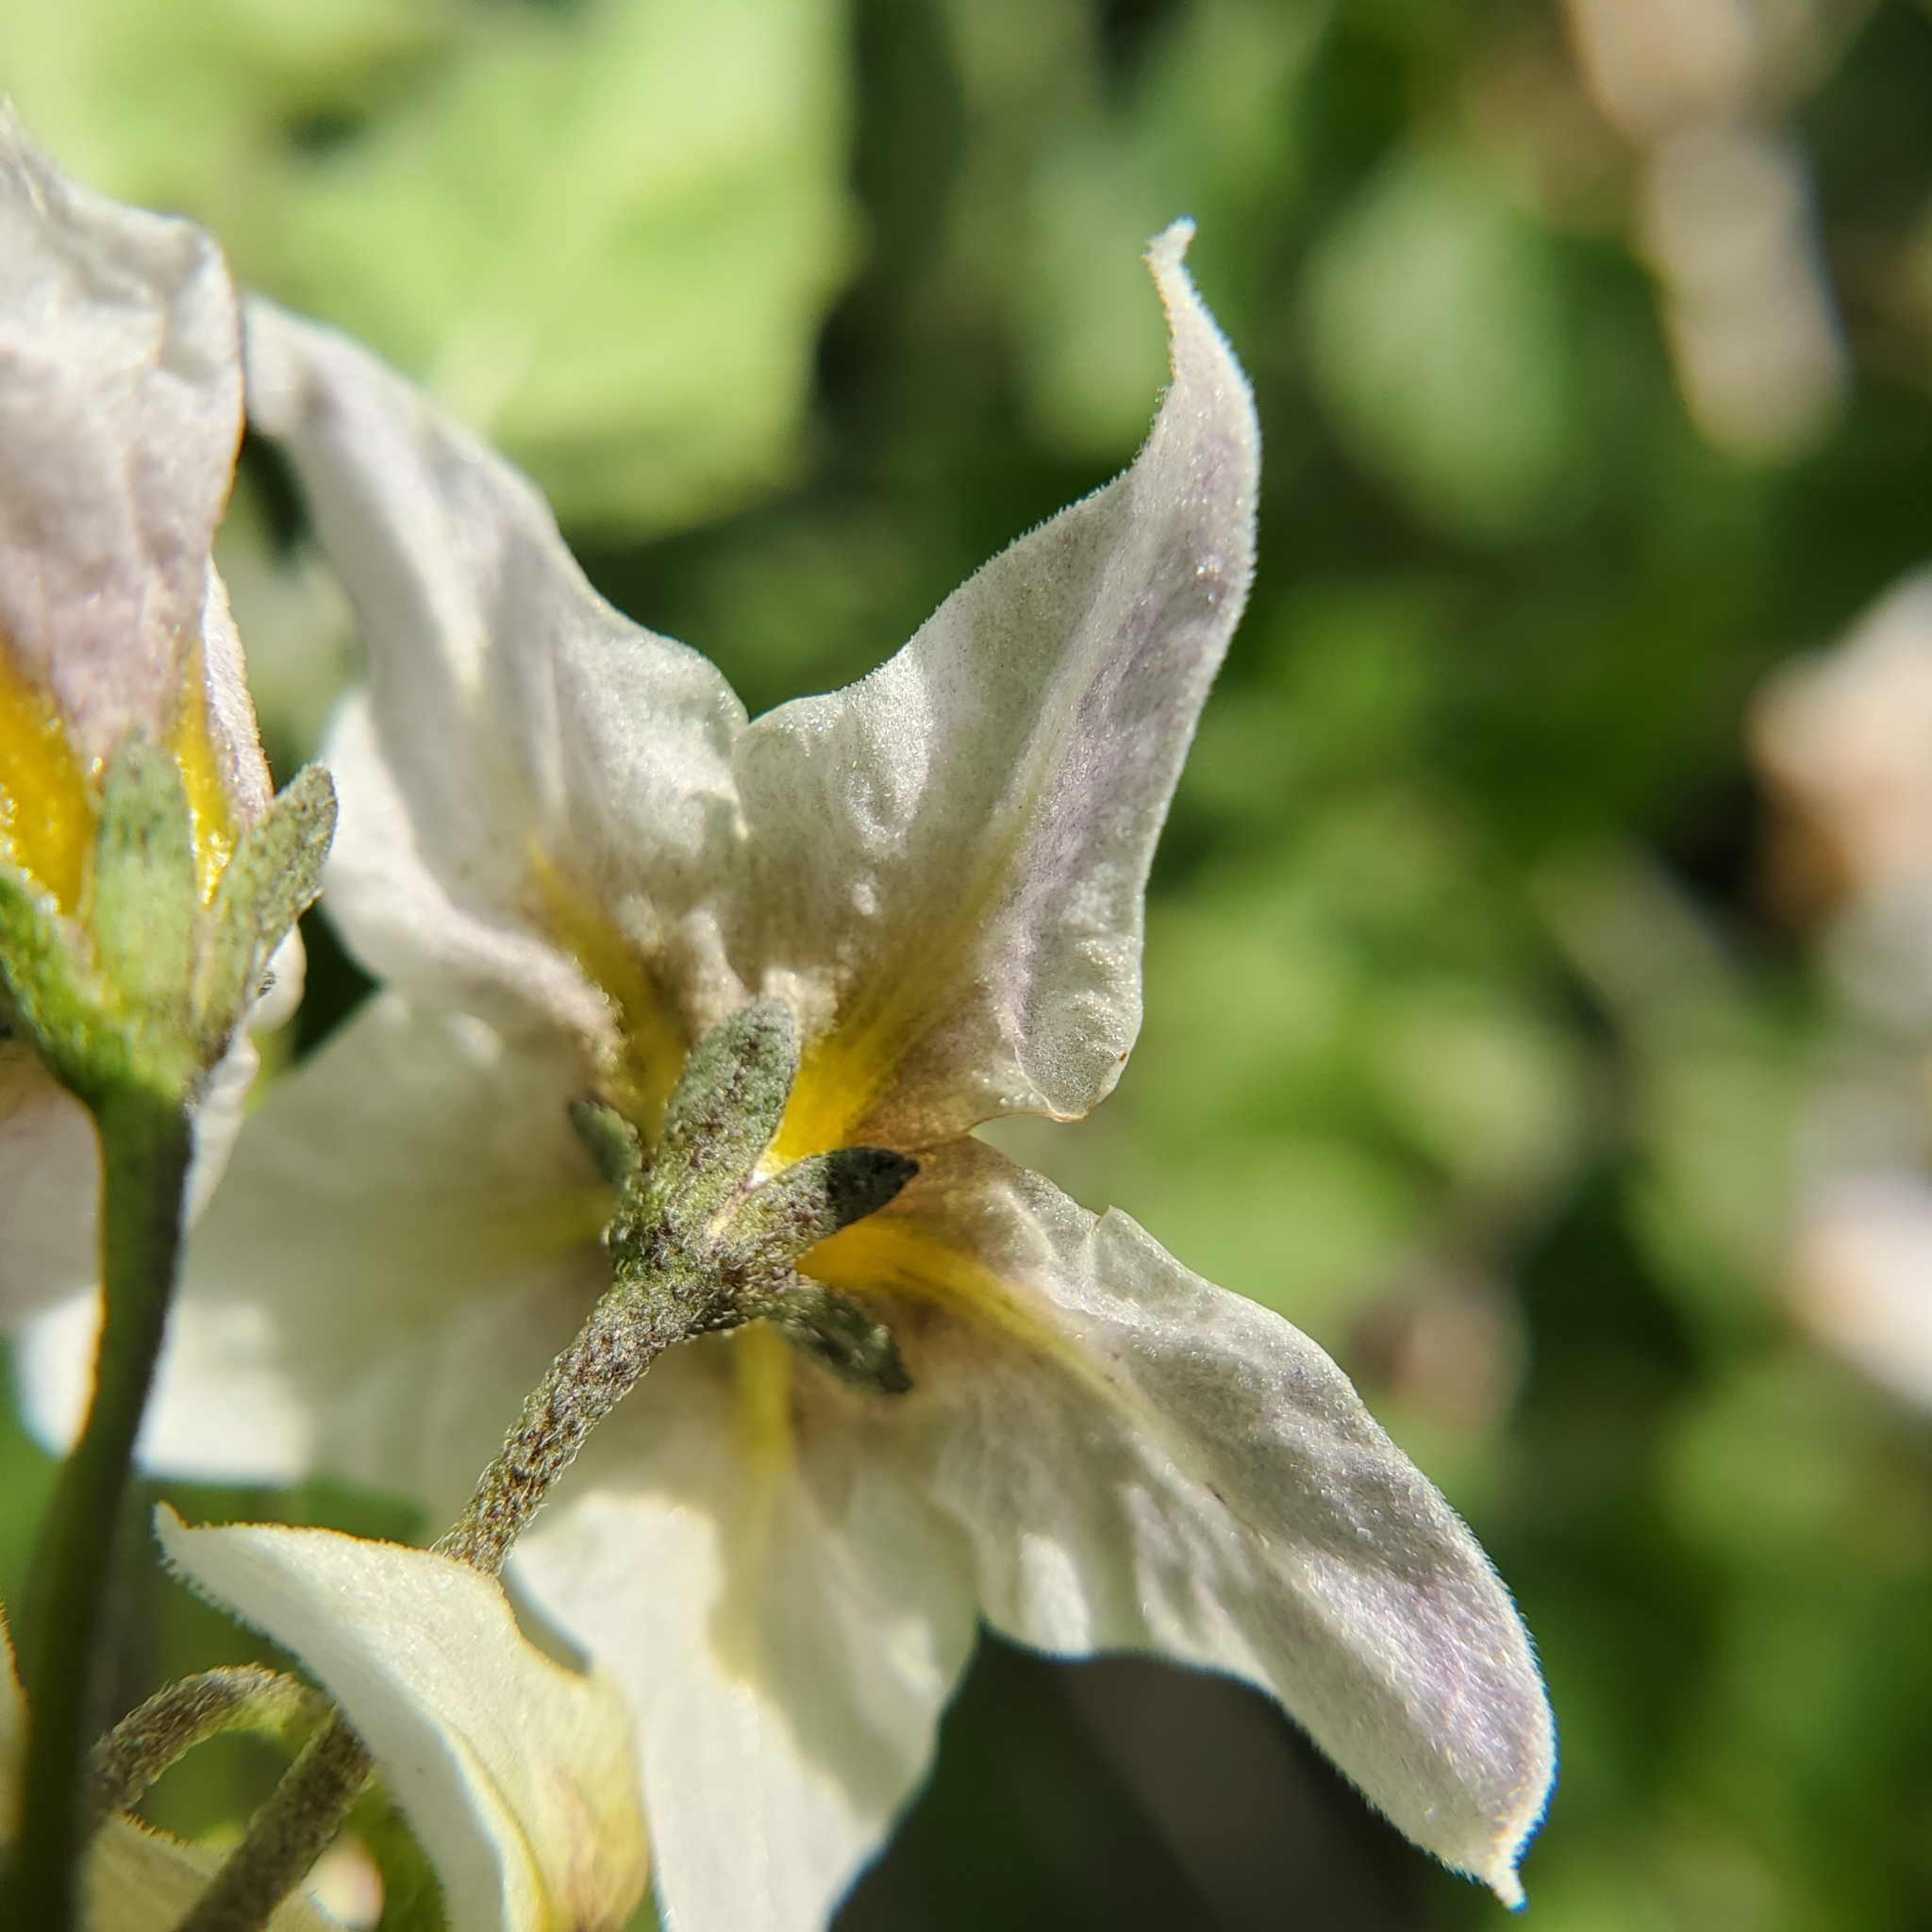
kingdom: Plantae
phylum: Tracheophyta
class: Magnoliopsida
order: Solanales
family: Solanaceae
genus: Solanum
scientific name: Solanum douglasii
